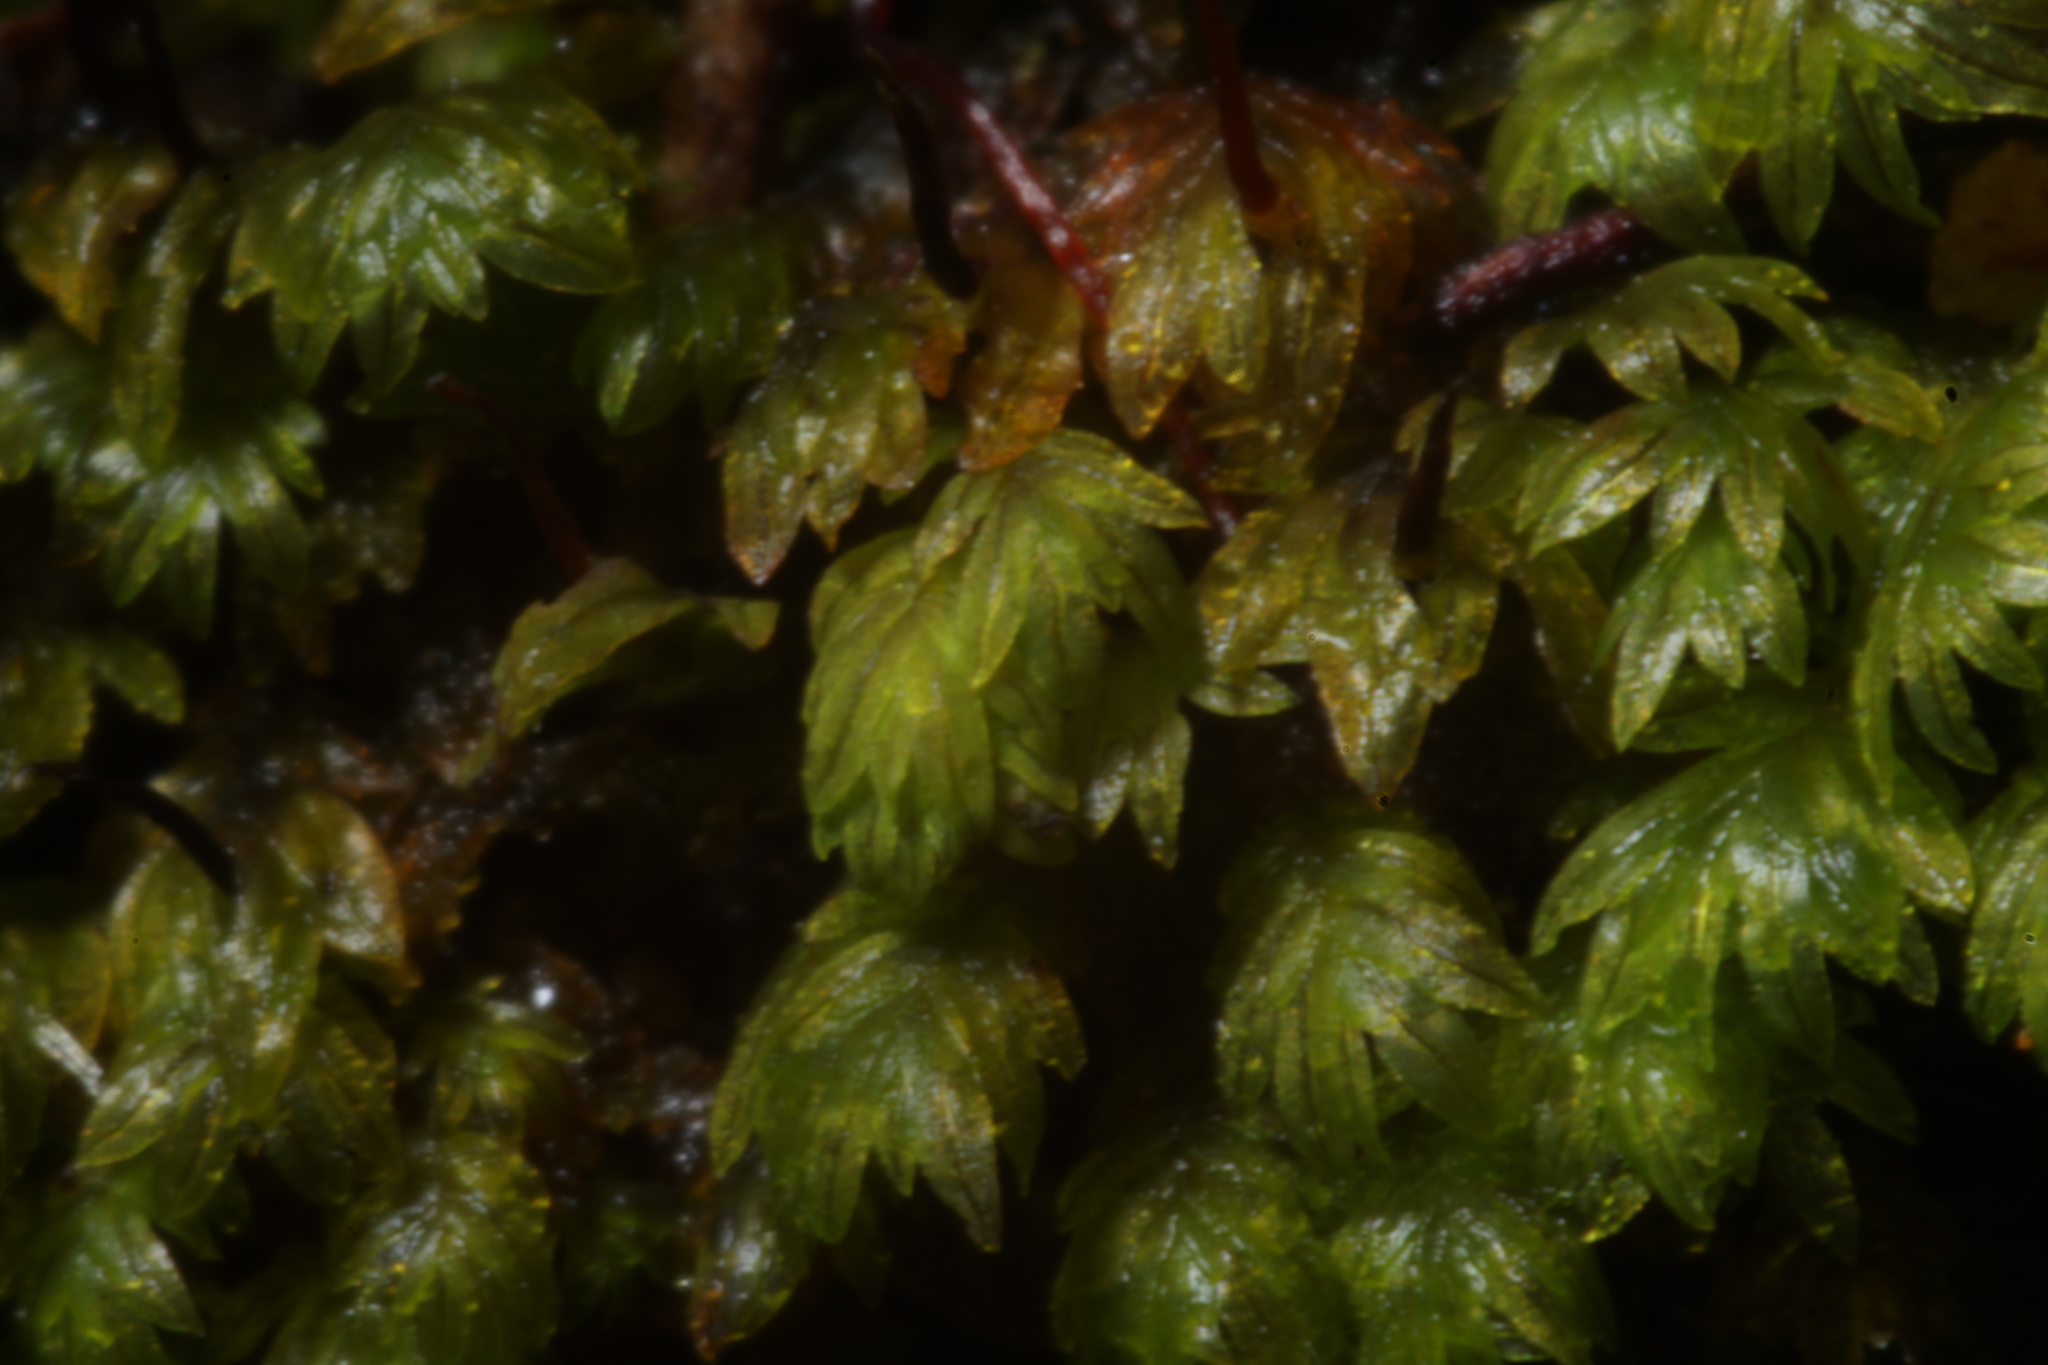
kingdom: Plantae
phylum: Bryophyta
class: Bryopsida
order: Dicranales
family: Fissidentaceae
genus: Fissidens
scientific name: Fissidens megalotis
